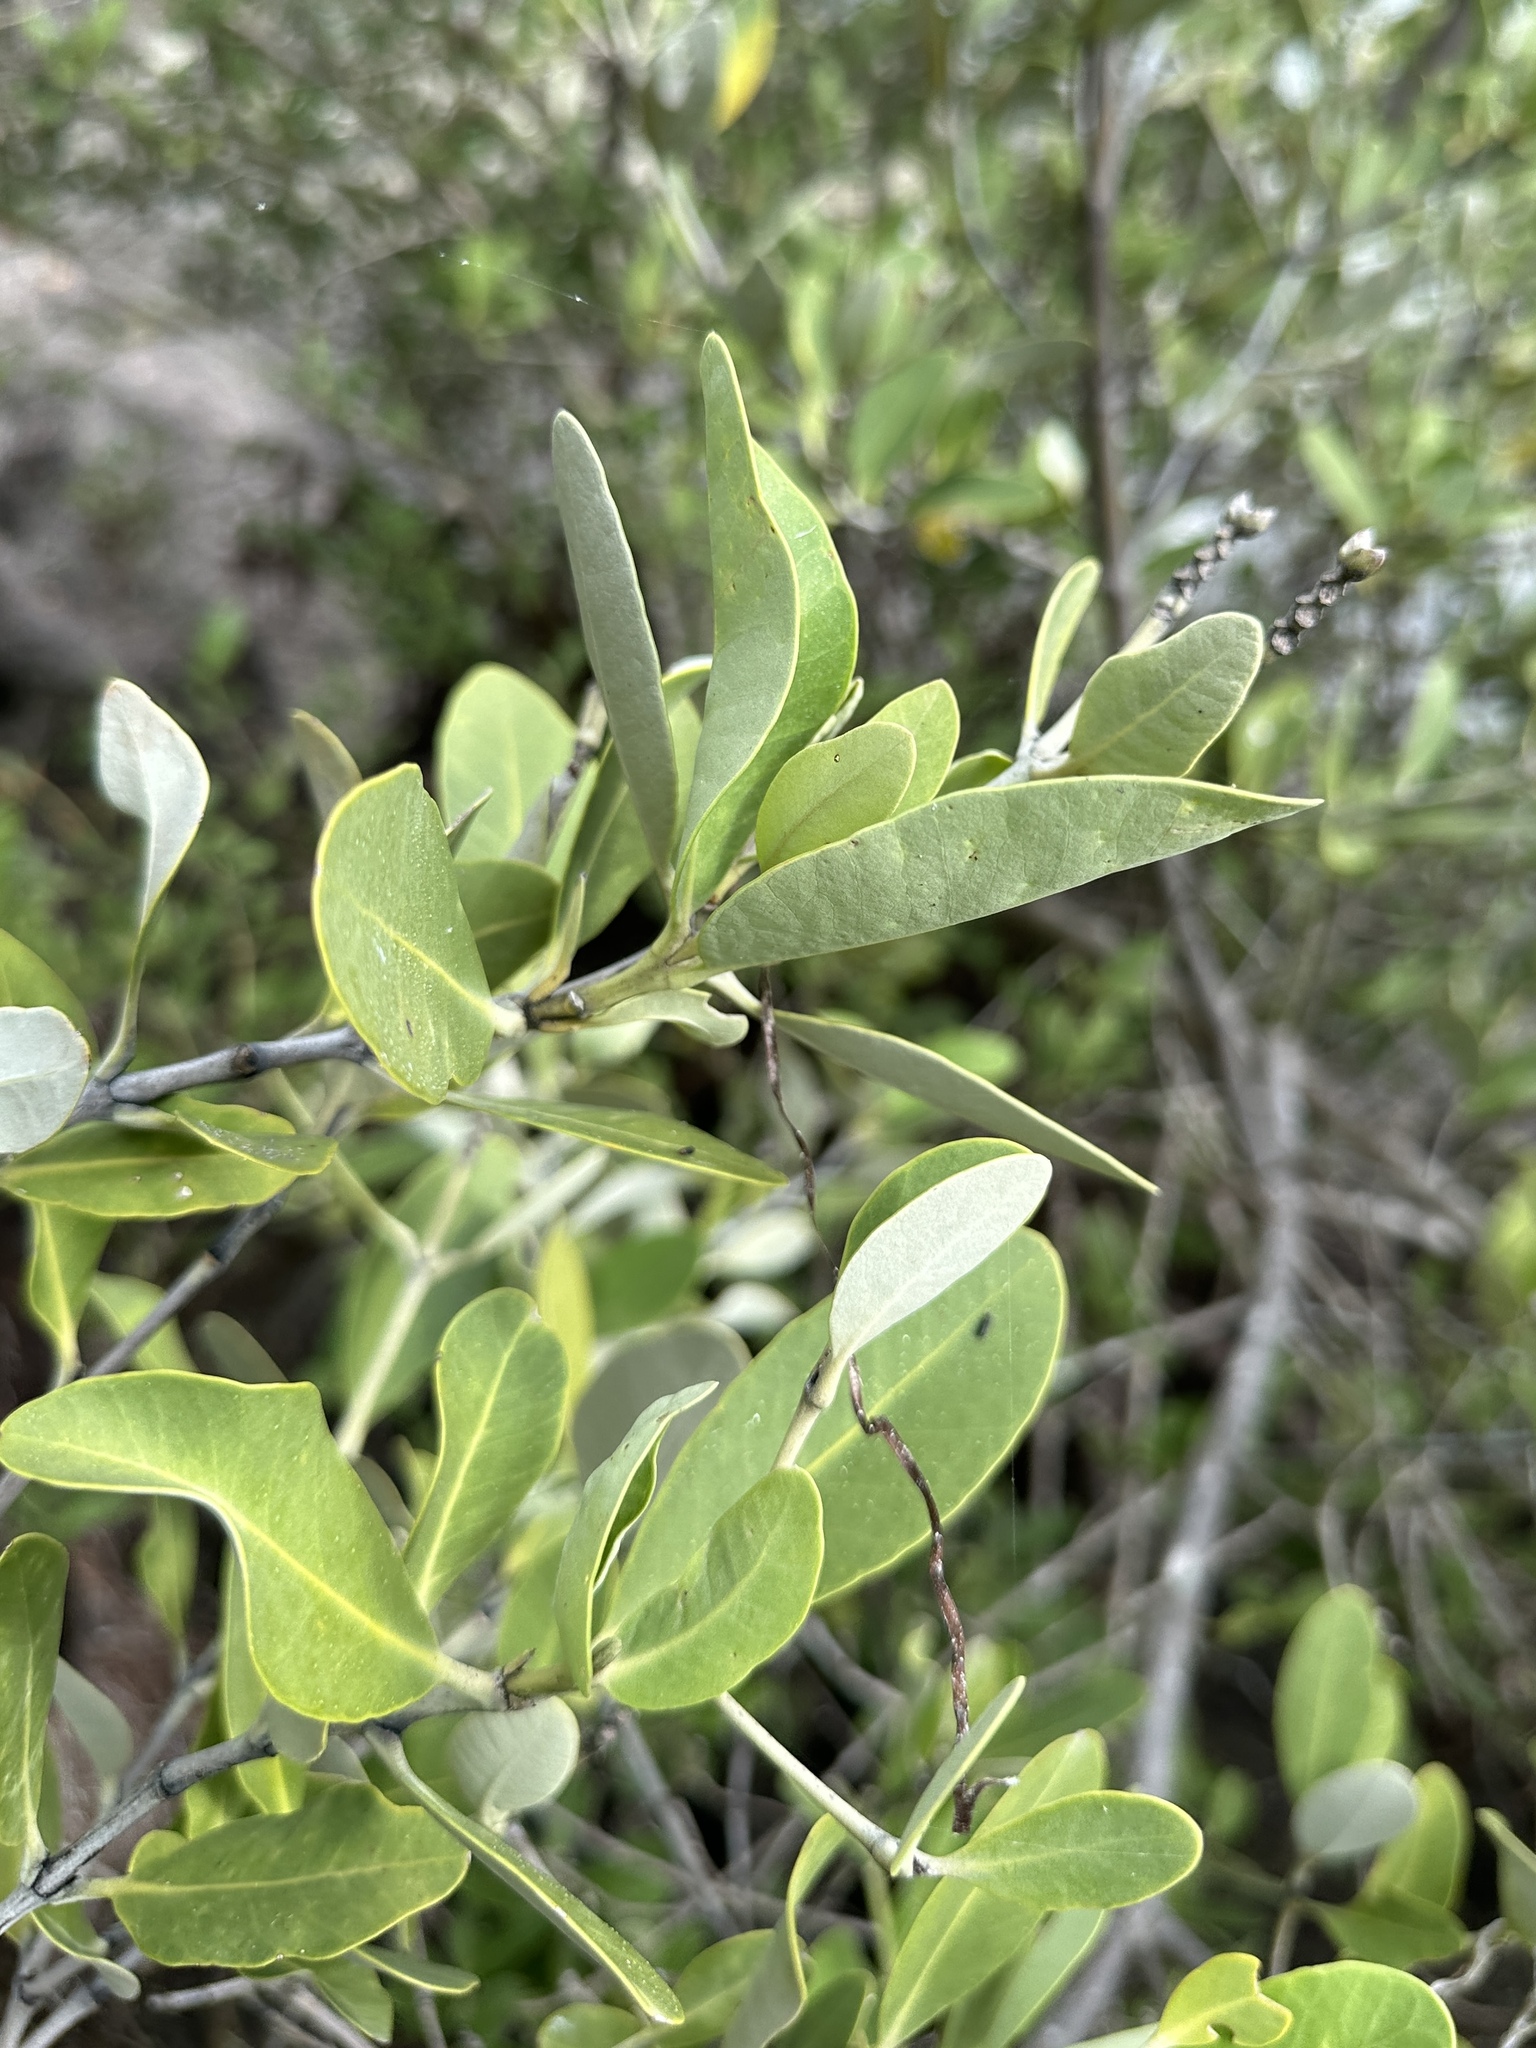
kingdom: Plantae
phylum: Tracheophyta
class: Magnoliopsida
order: Lamiales
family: Acanthaceae
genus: Avicennia
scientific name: Avicennia germinans
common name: Black mangrove
